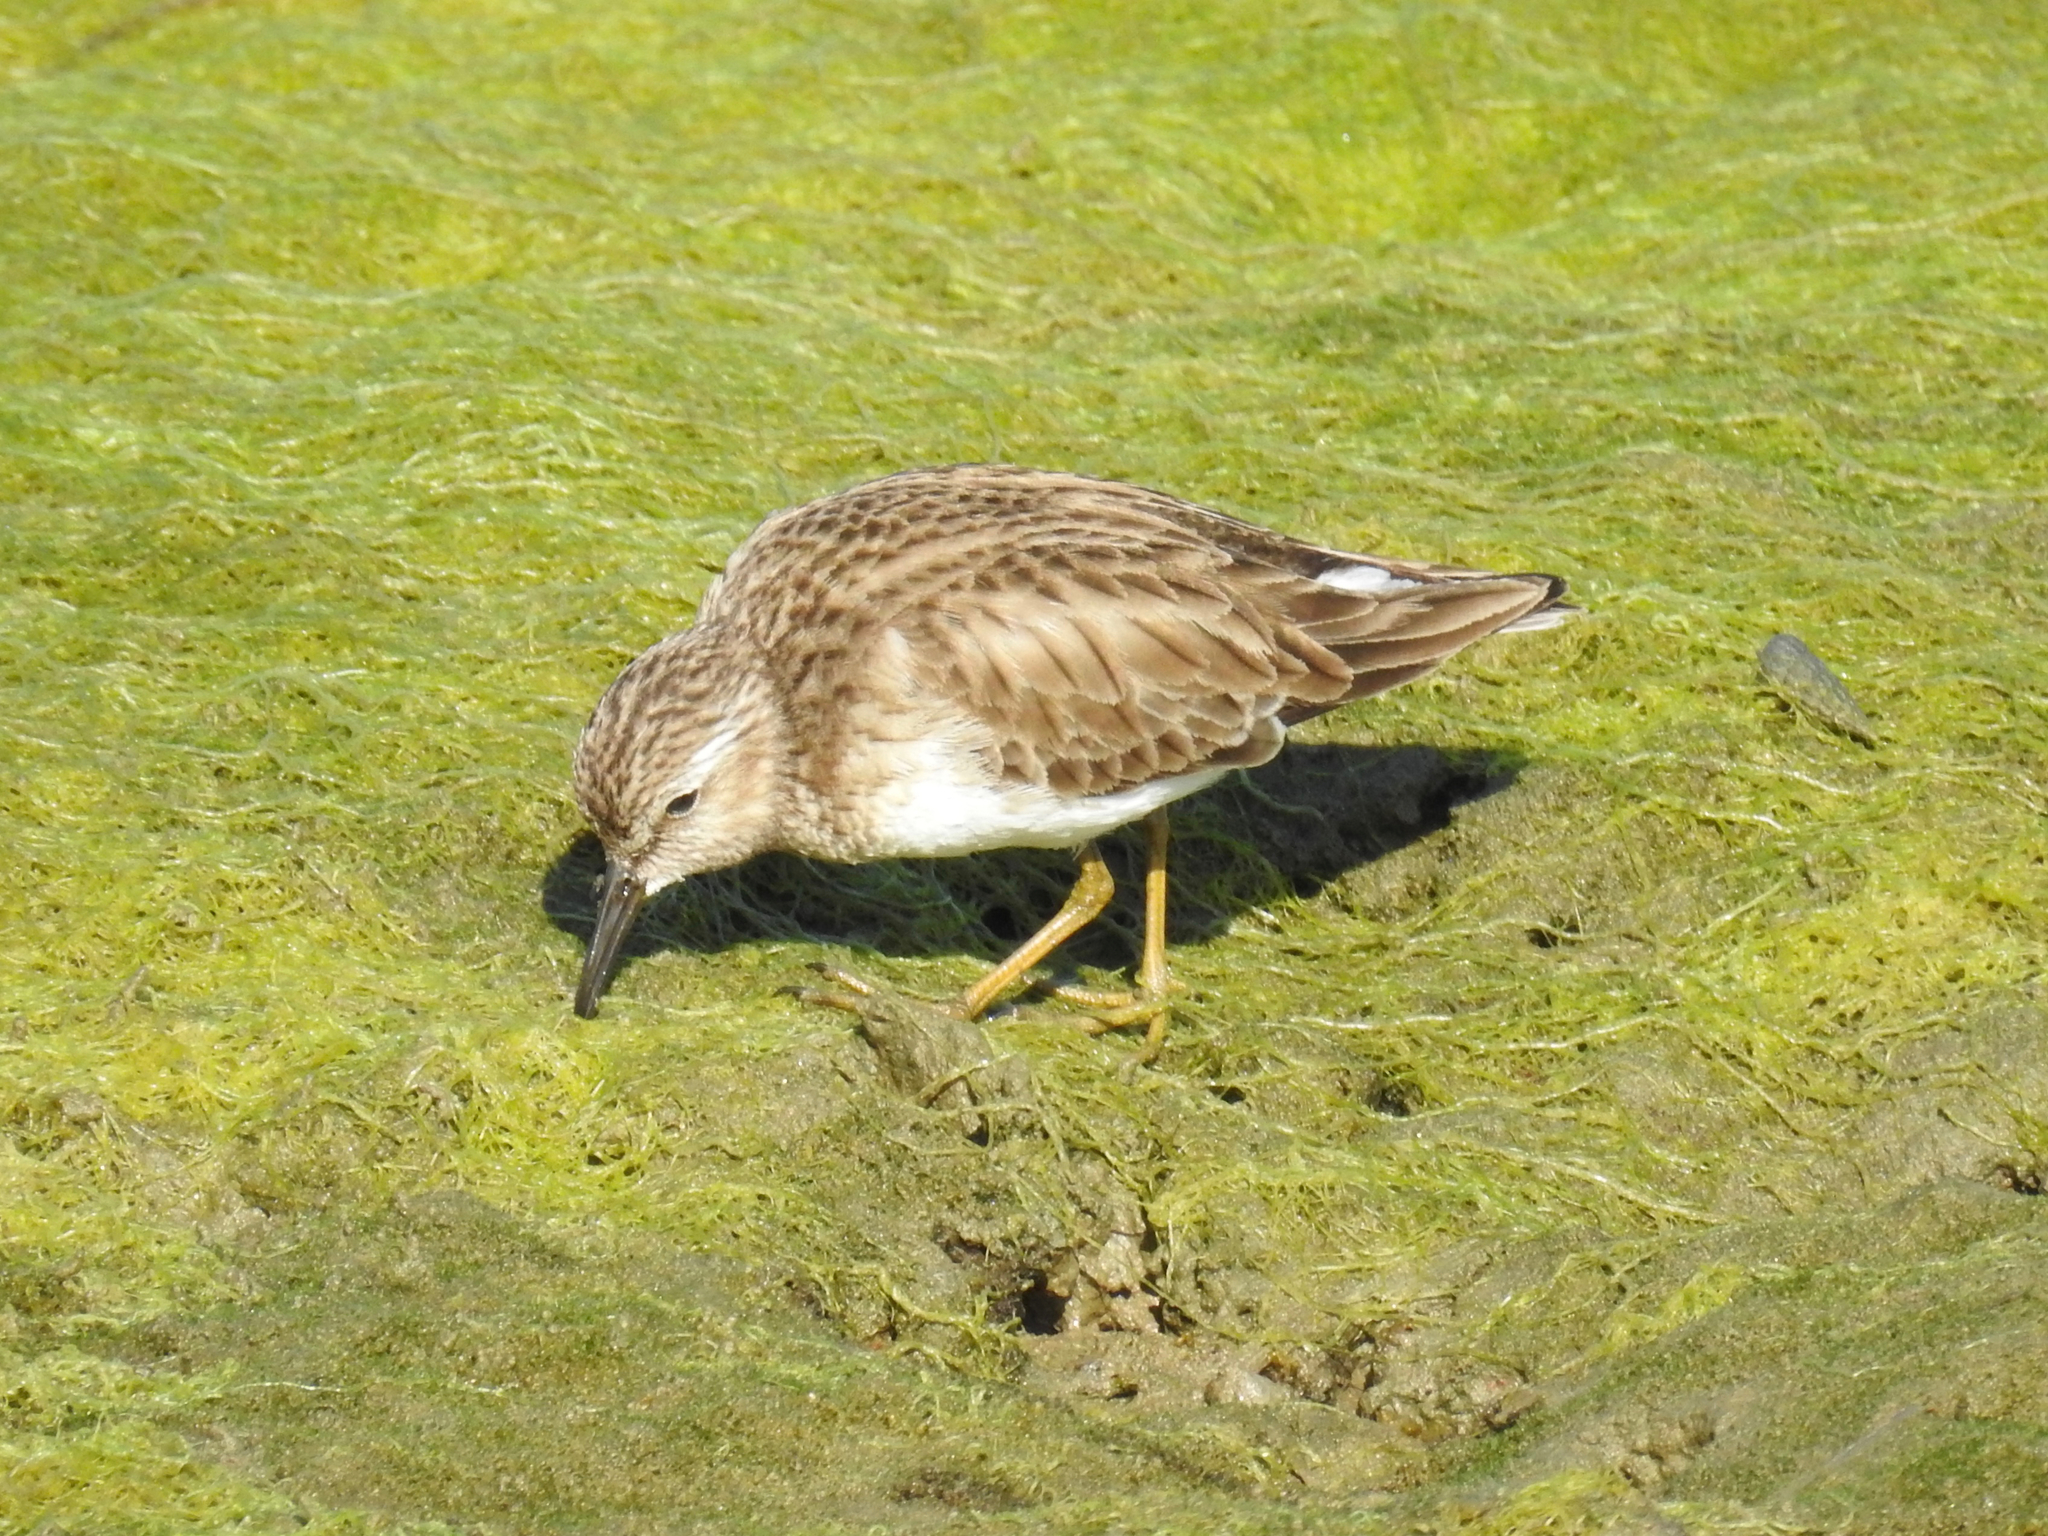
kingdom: Animalia
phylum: Chordata
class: Aves
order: Charadriiformes
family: Scolopacidae
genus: Calidris
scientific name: Calidris minutilla
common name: Least sandpiper
